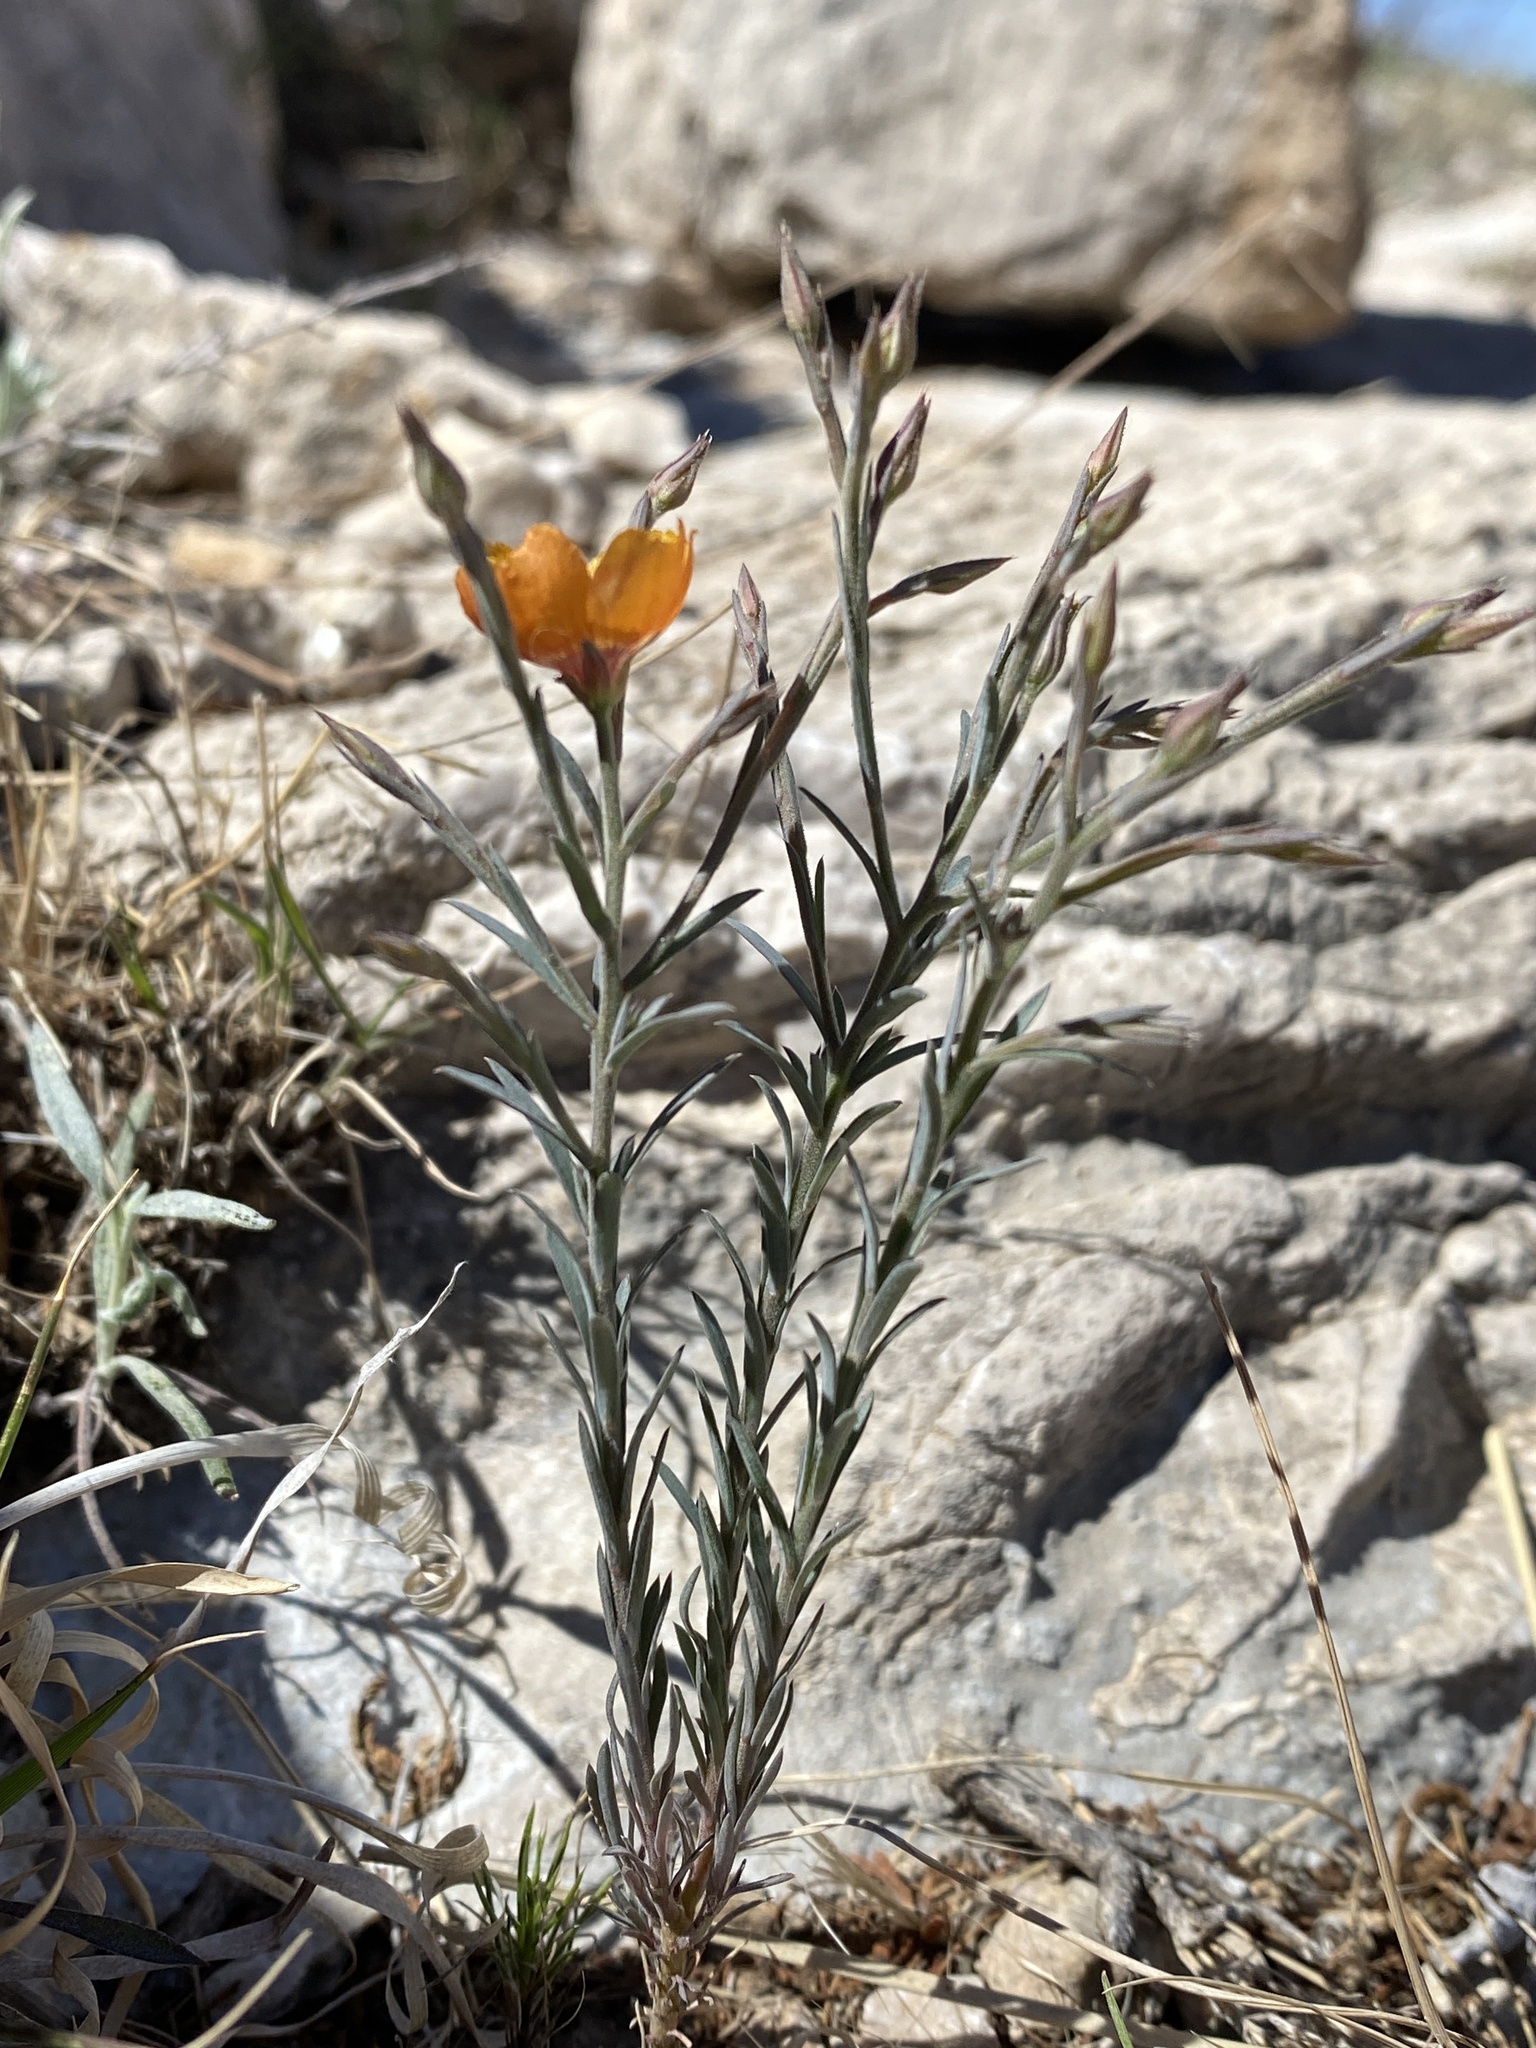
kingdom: Plantae
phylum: Tracheophyta
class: Magnoliopsida
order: Malpighiales
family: Linaceae
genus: Linum
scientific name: Linum puberulum
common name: Plains flax
